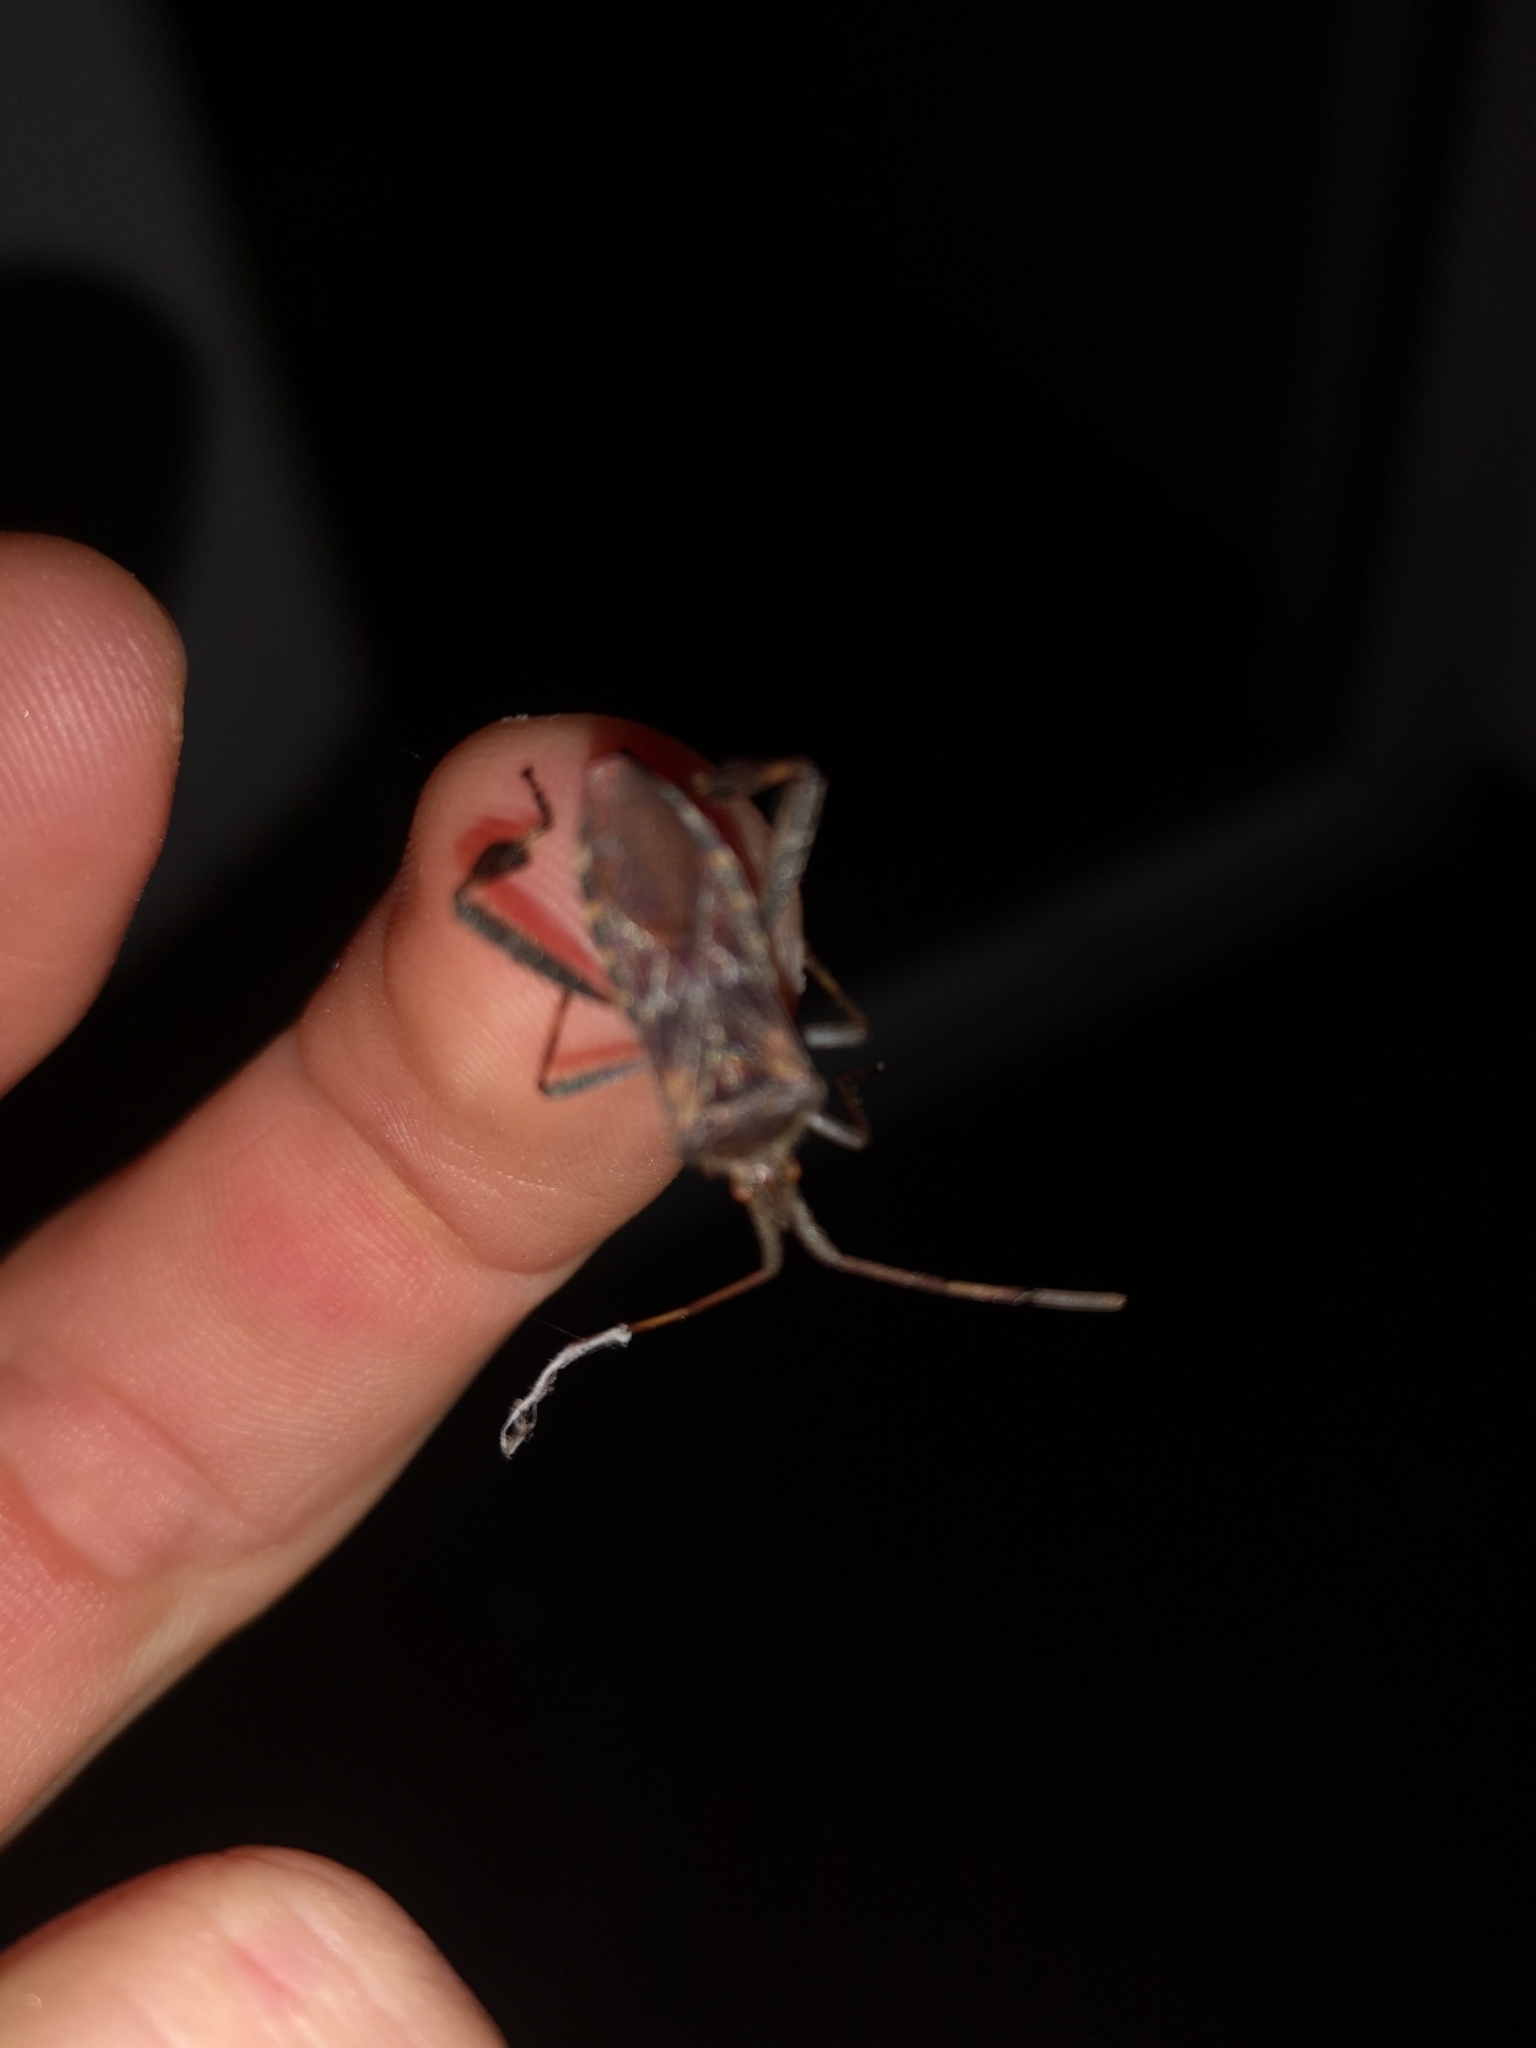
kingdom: Animalia
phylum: Arthropoda
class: Insecta
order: Hemiptera
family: Coreidae
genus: Leptoglossus
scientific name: Leptoglossus occidentalis
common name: Western conifer-seed bug
